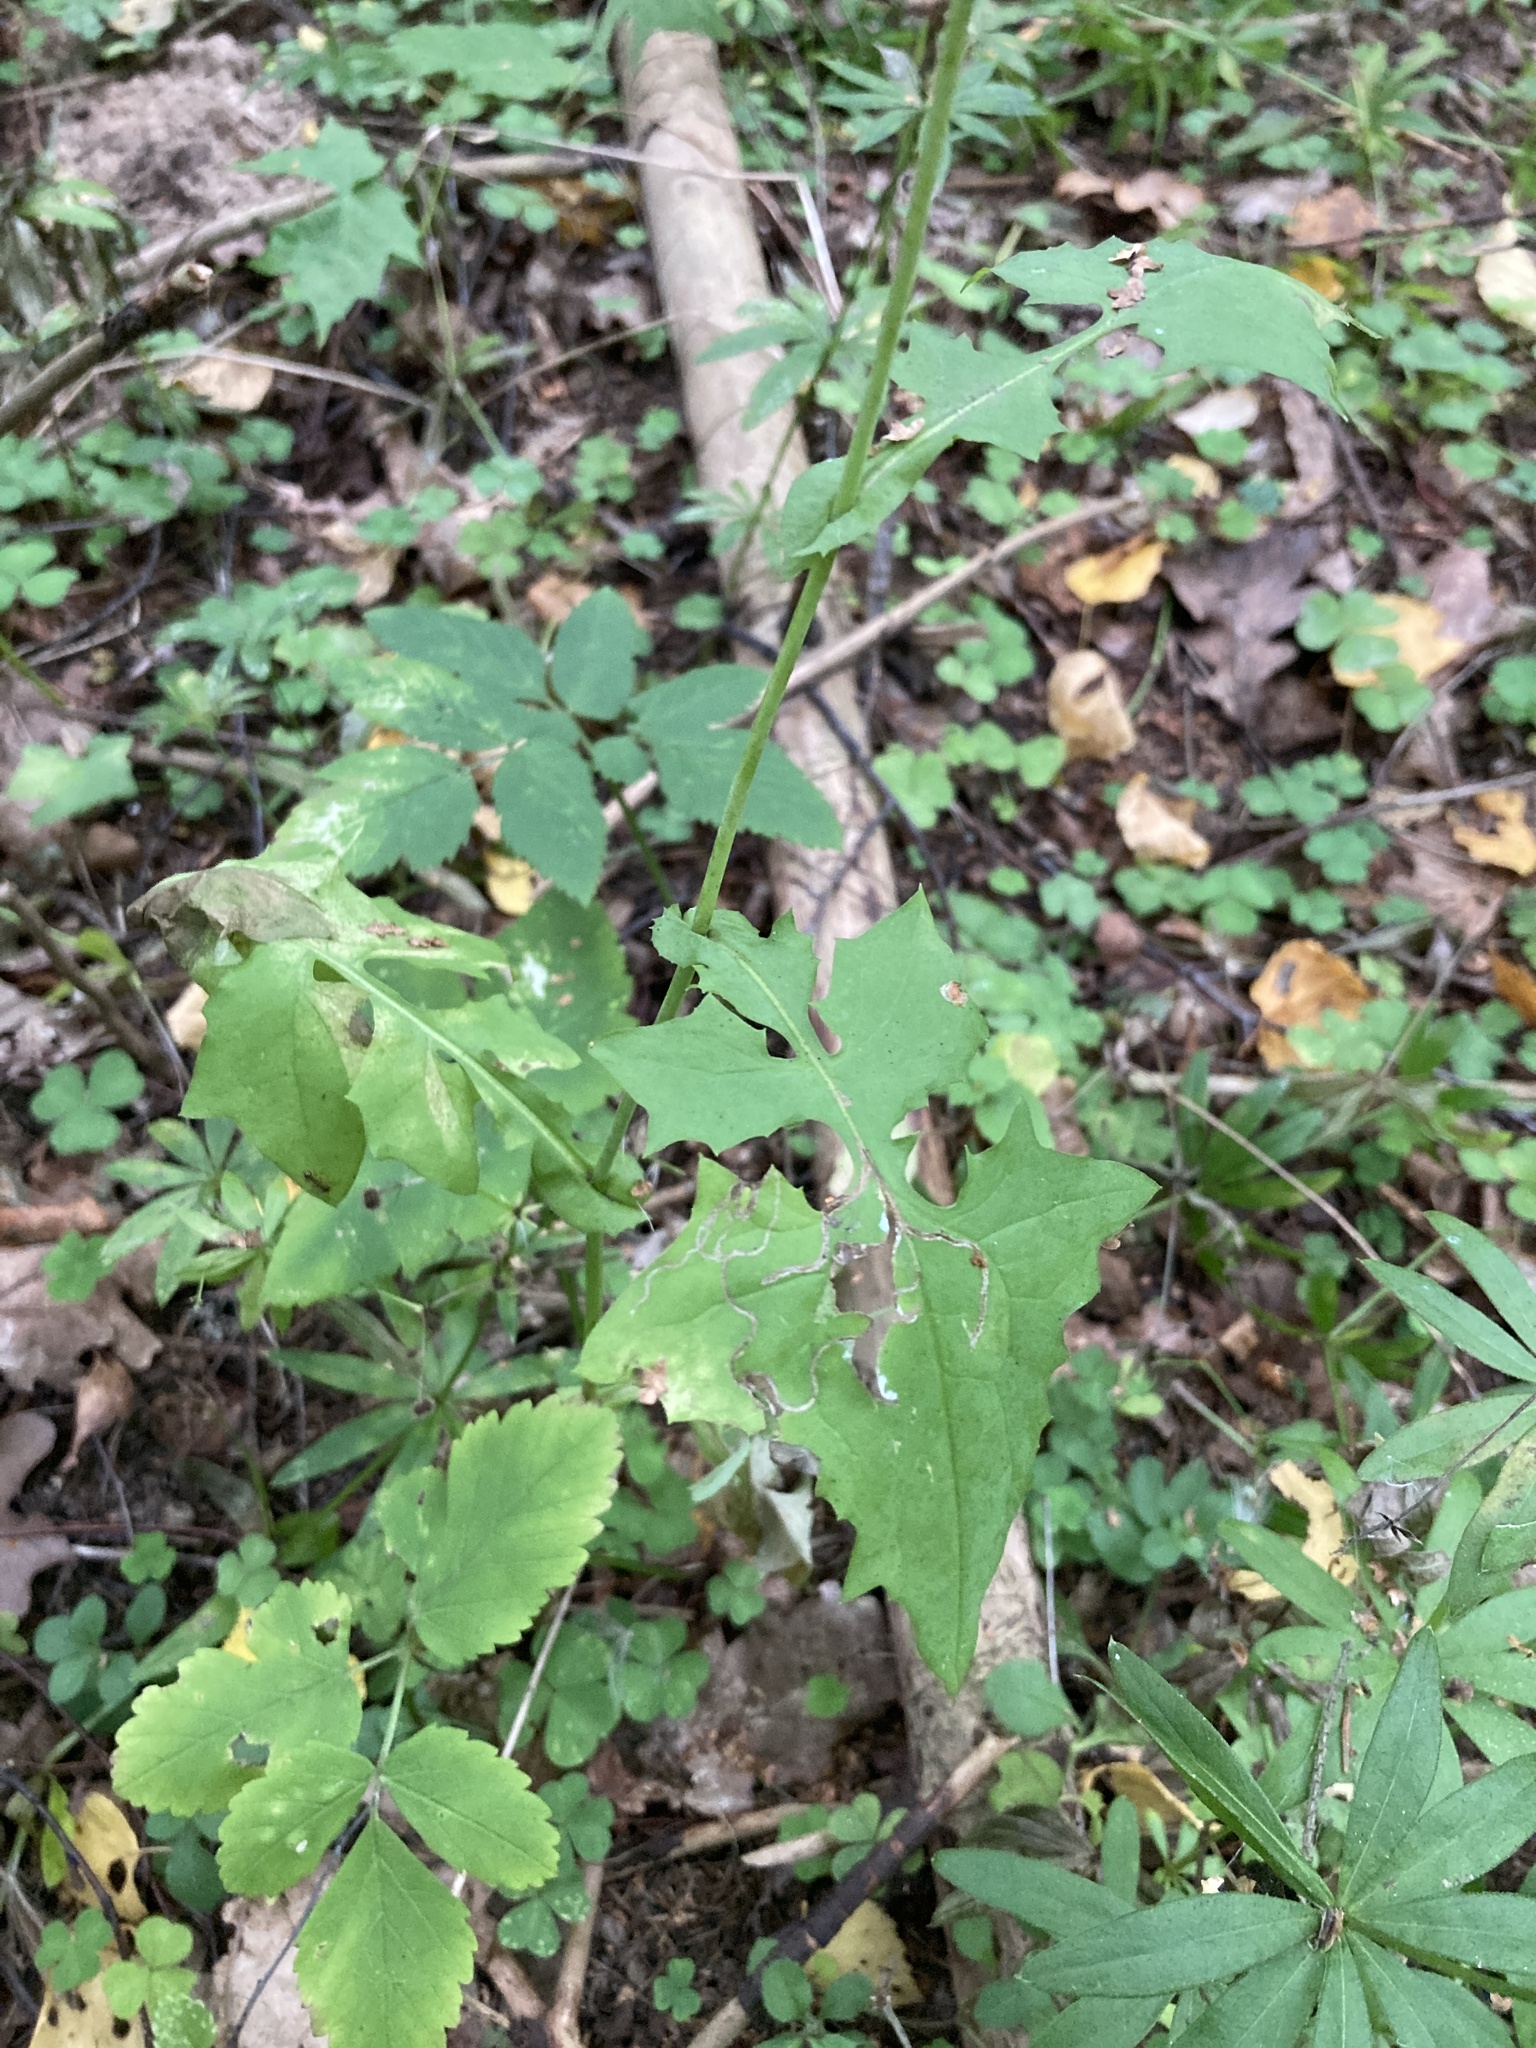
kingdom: Plantae
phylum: Tracheophyta
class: Magnoliopsida
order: Asterales
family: Asteraceae
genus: Mycelis
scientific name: Mycelis muralis
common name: Wall lettuce
